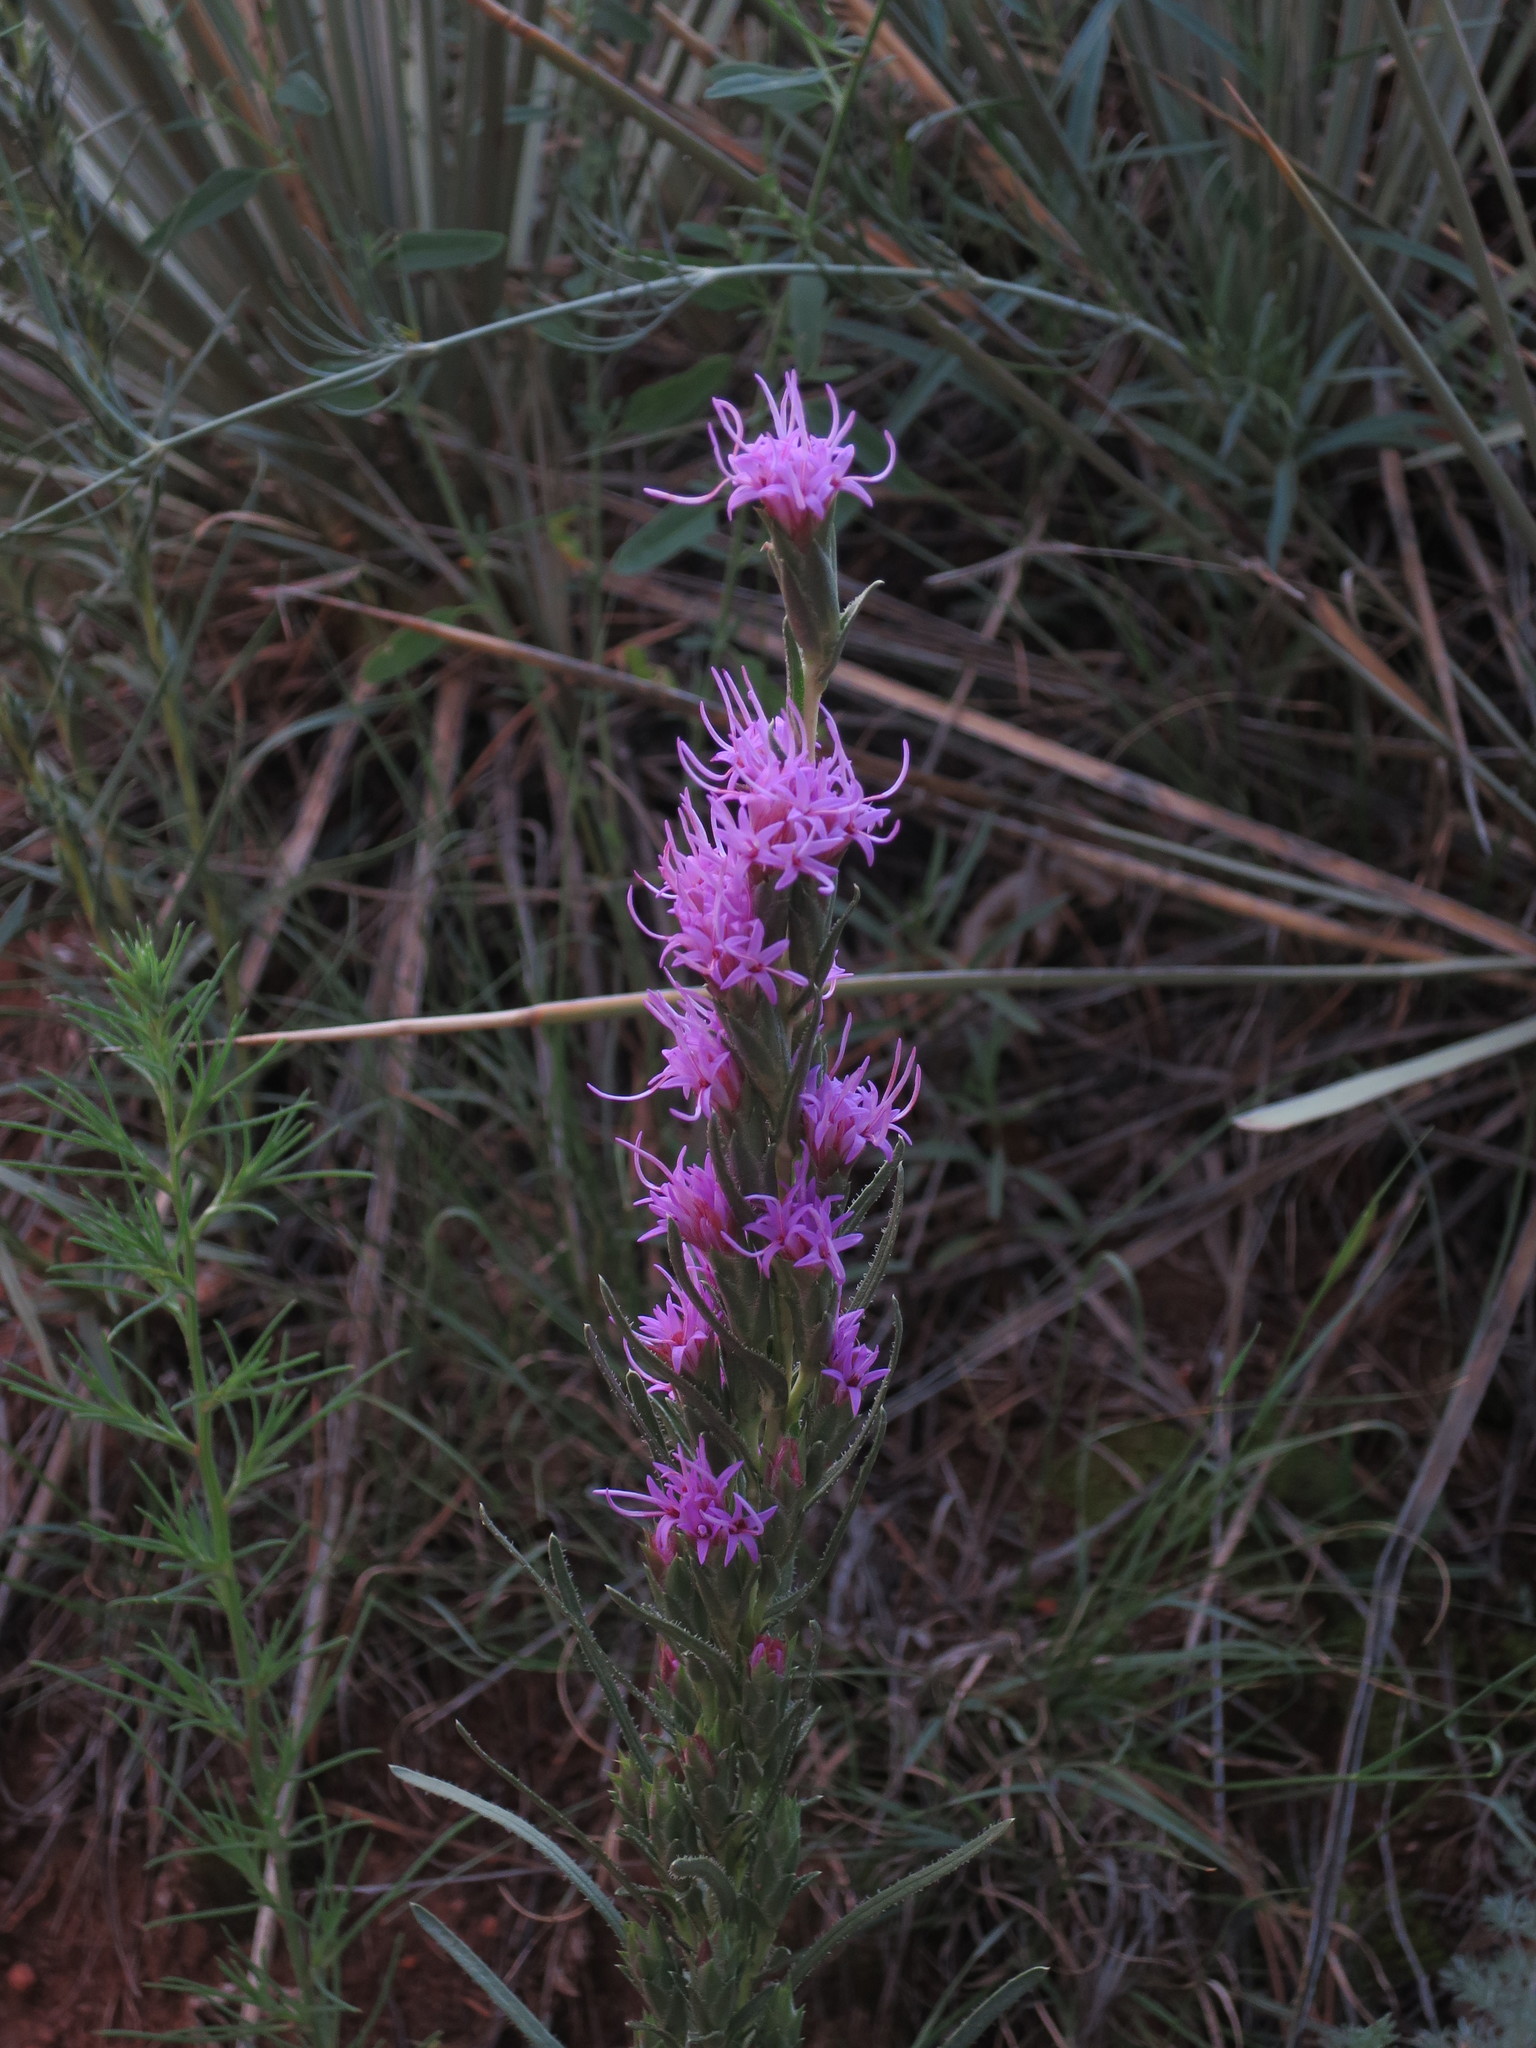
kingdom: Plantae
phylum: Tracheophyta
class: Magnoliopsida
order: Asterales
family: Asteraceae
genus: Liatris
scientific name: Liatris punctata
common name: Dotted gayfeather
